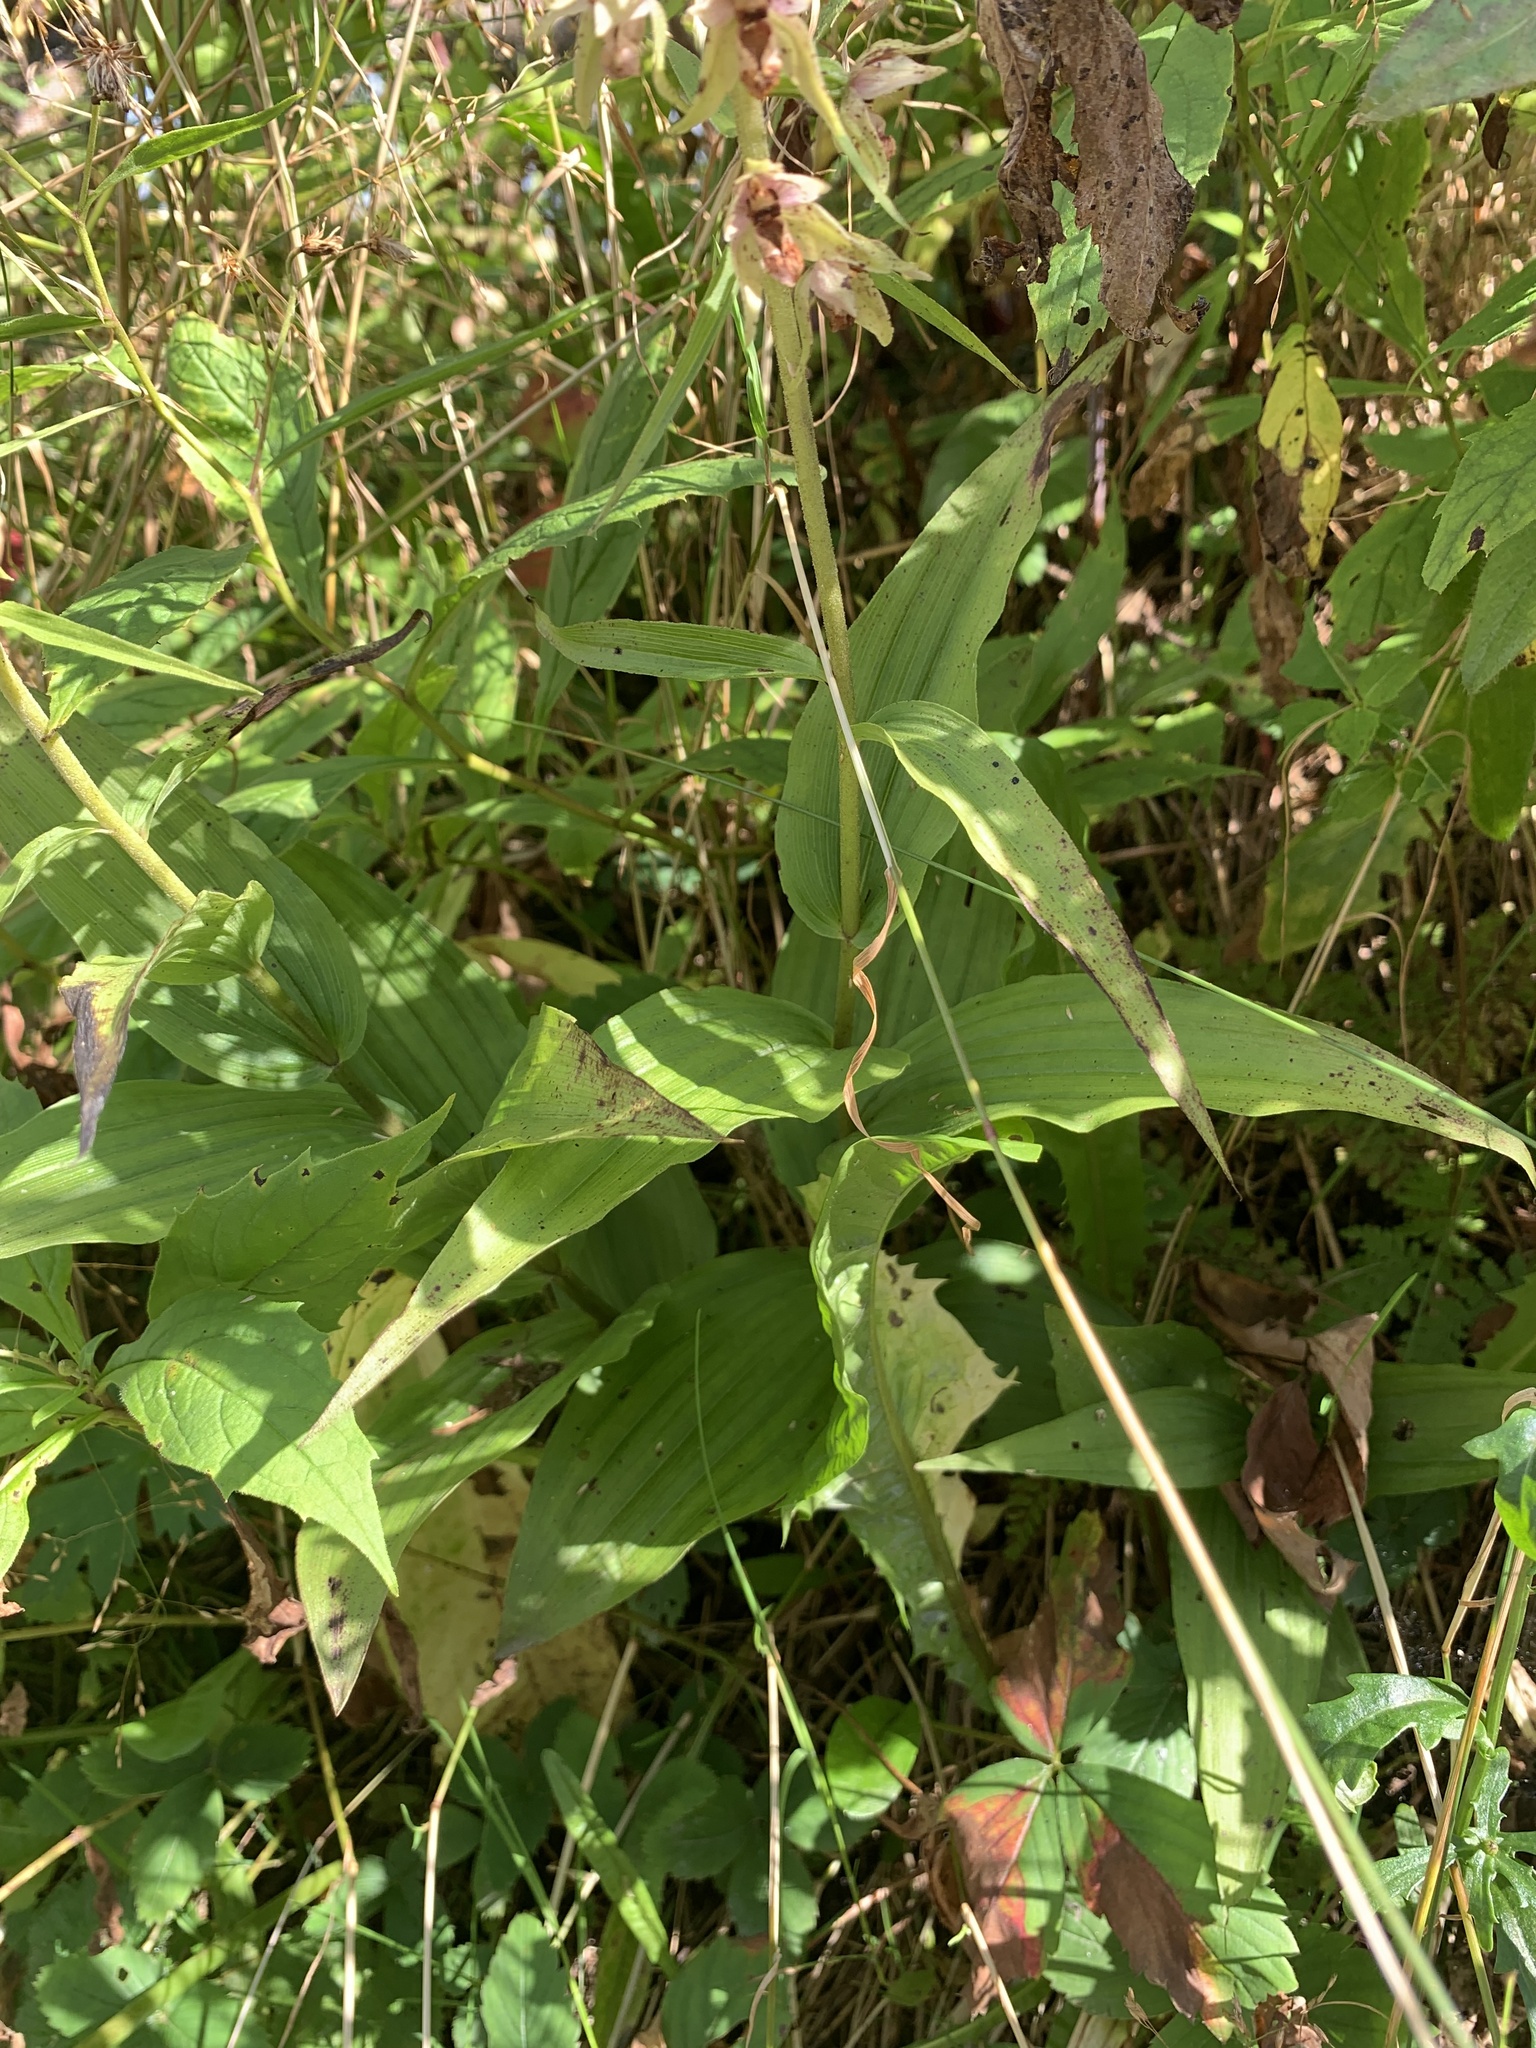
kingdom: Plantae
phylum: Tracheophyta
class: Liliopsida
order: Asparagales
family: Orchidaceae
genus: Epipactis
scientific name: Epipactis helleborine
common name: Broad-leaved helleborine
